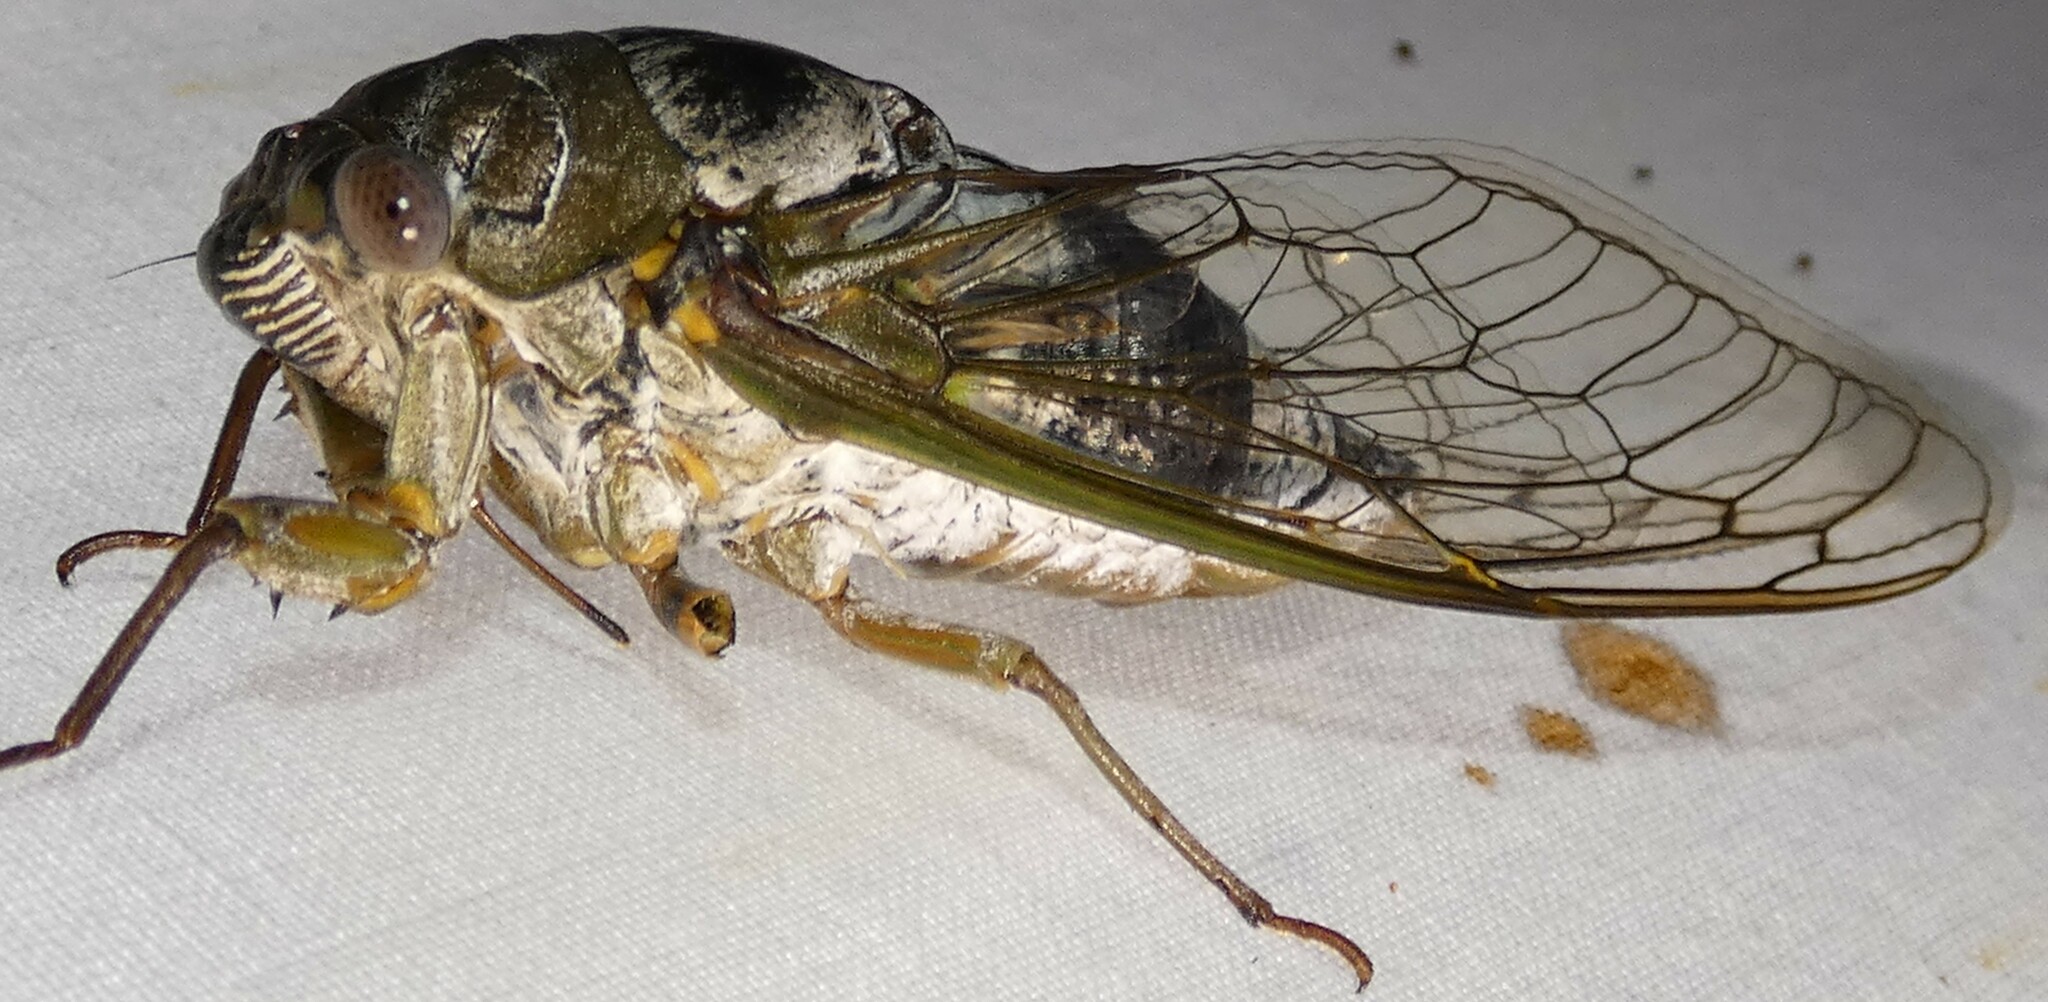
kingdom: Animalia
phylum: Arthropoda
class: Insecta
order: Hemiptera
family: Cicadidae
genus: Diceroprocta
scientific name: Diceroprocta grossa
